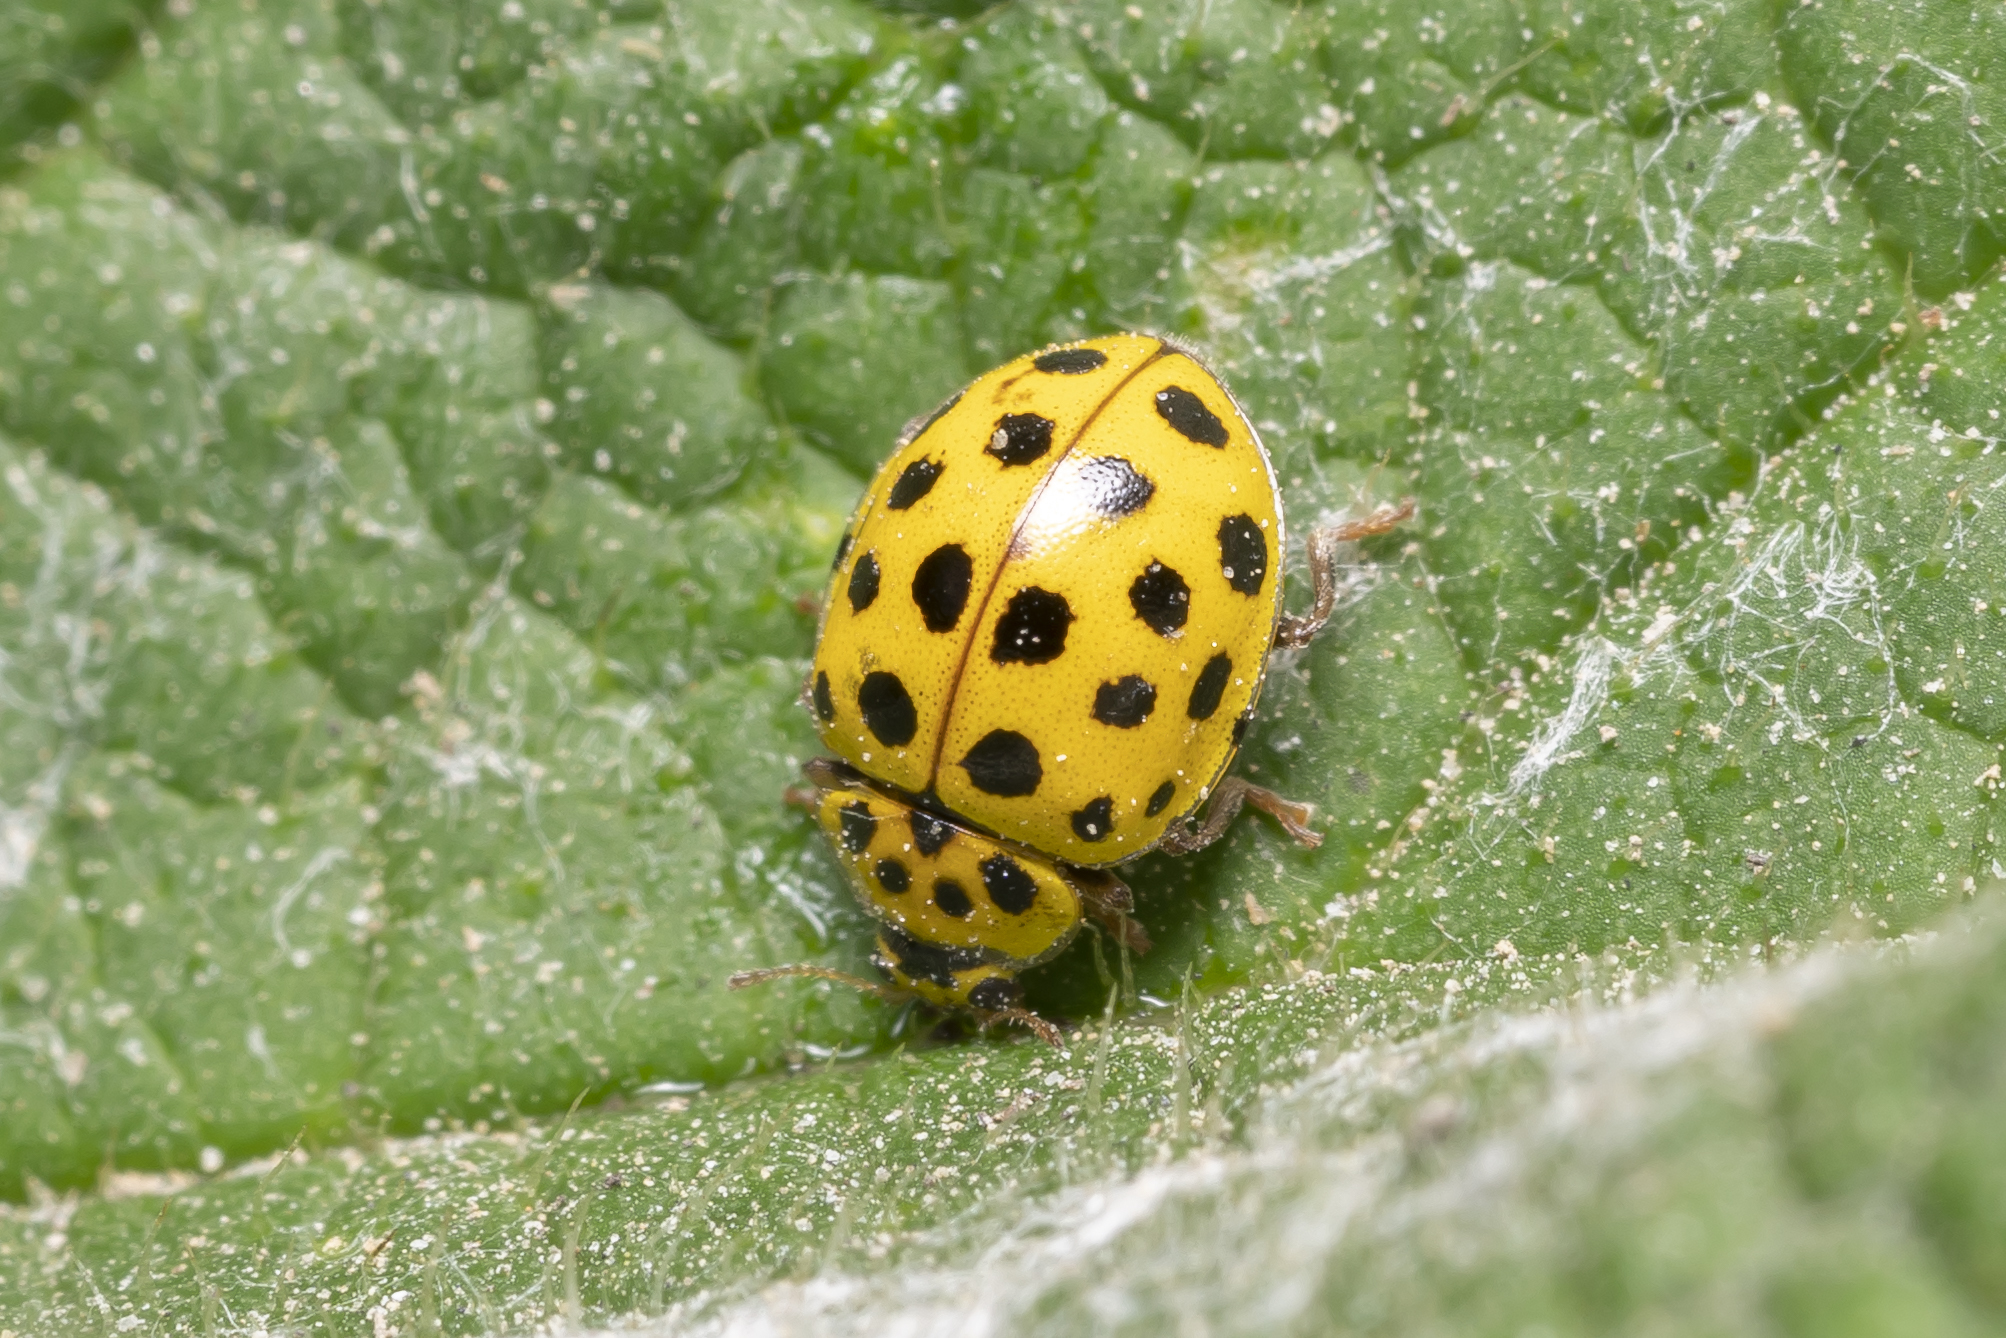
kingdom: Animalia
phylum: Arthropoda
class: Insecta
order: Coleoptera
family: Coccinellidae
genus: Psyllobora
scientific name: Psyllobora vigintiduopunctata
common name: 22-spot ladybird
